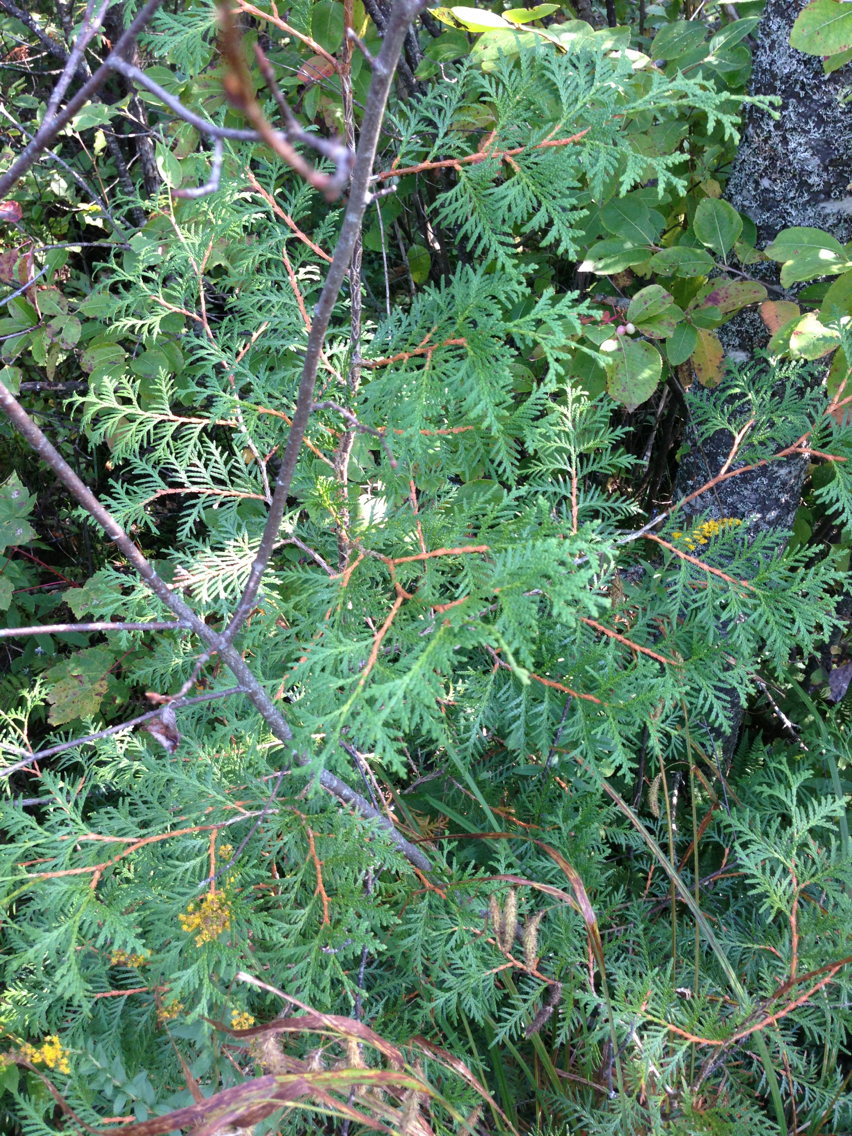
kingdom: Plantae
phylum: Tracheophyta
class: Pinopsida
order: Pinales
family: Cupressaceae
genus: Thuja
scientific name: Thuja occidentalis
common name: Northern white-cedar
